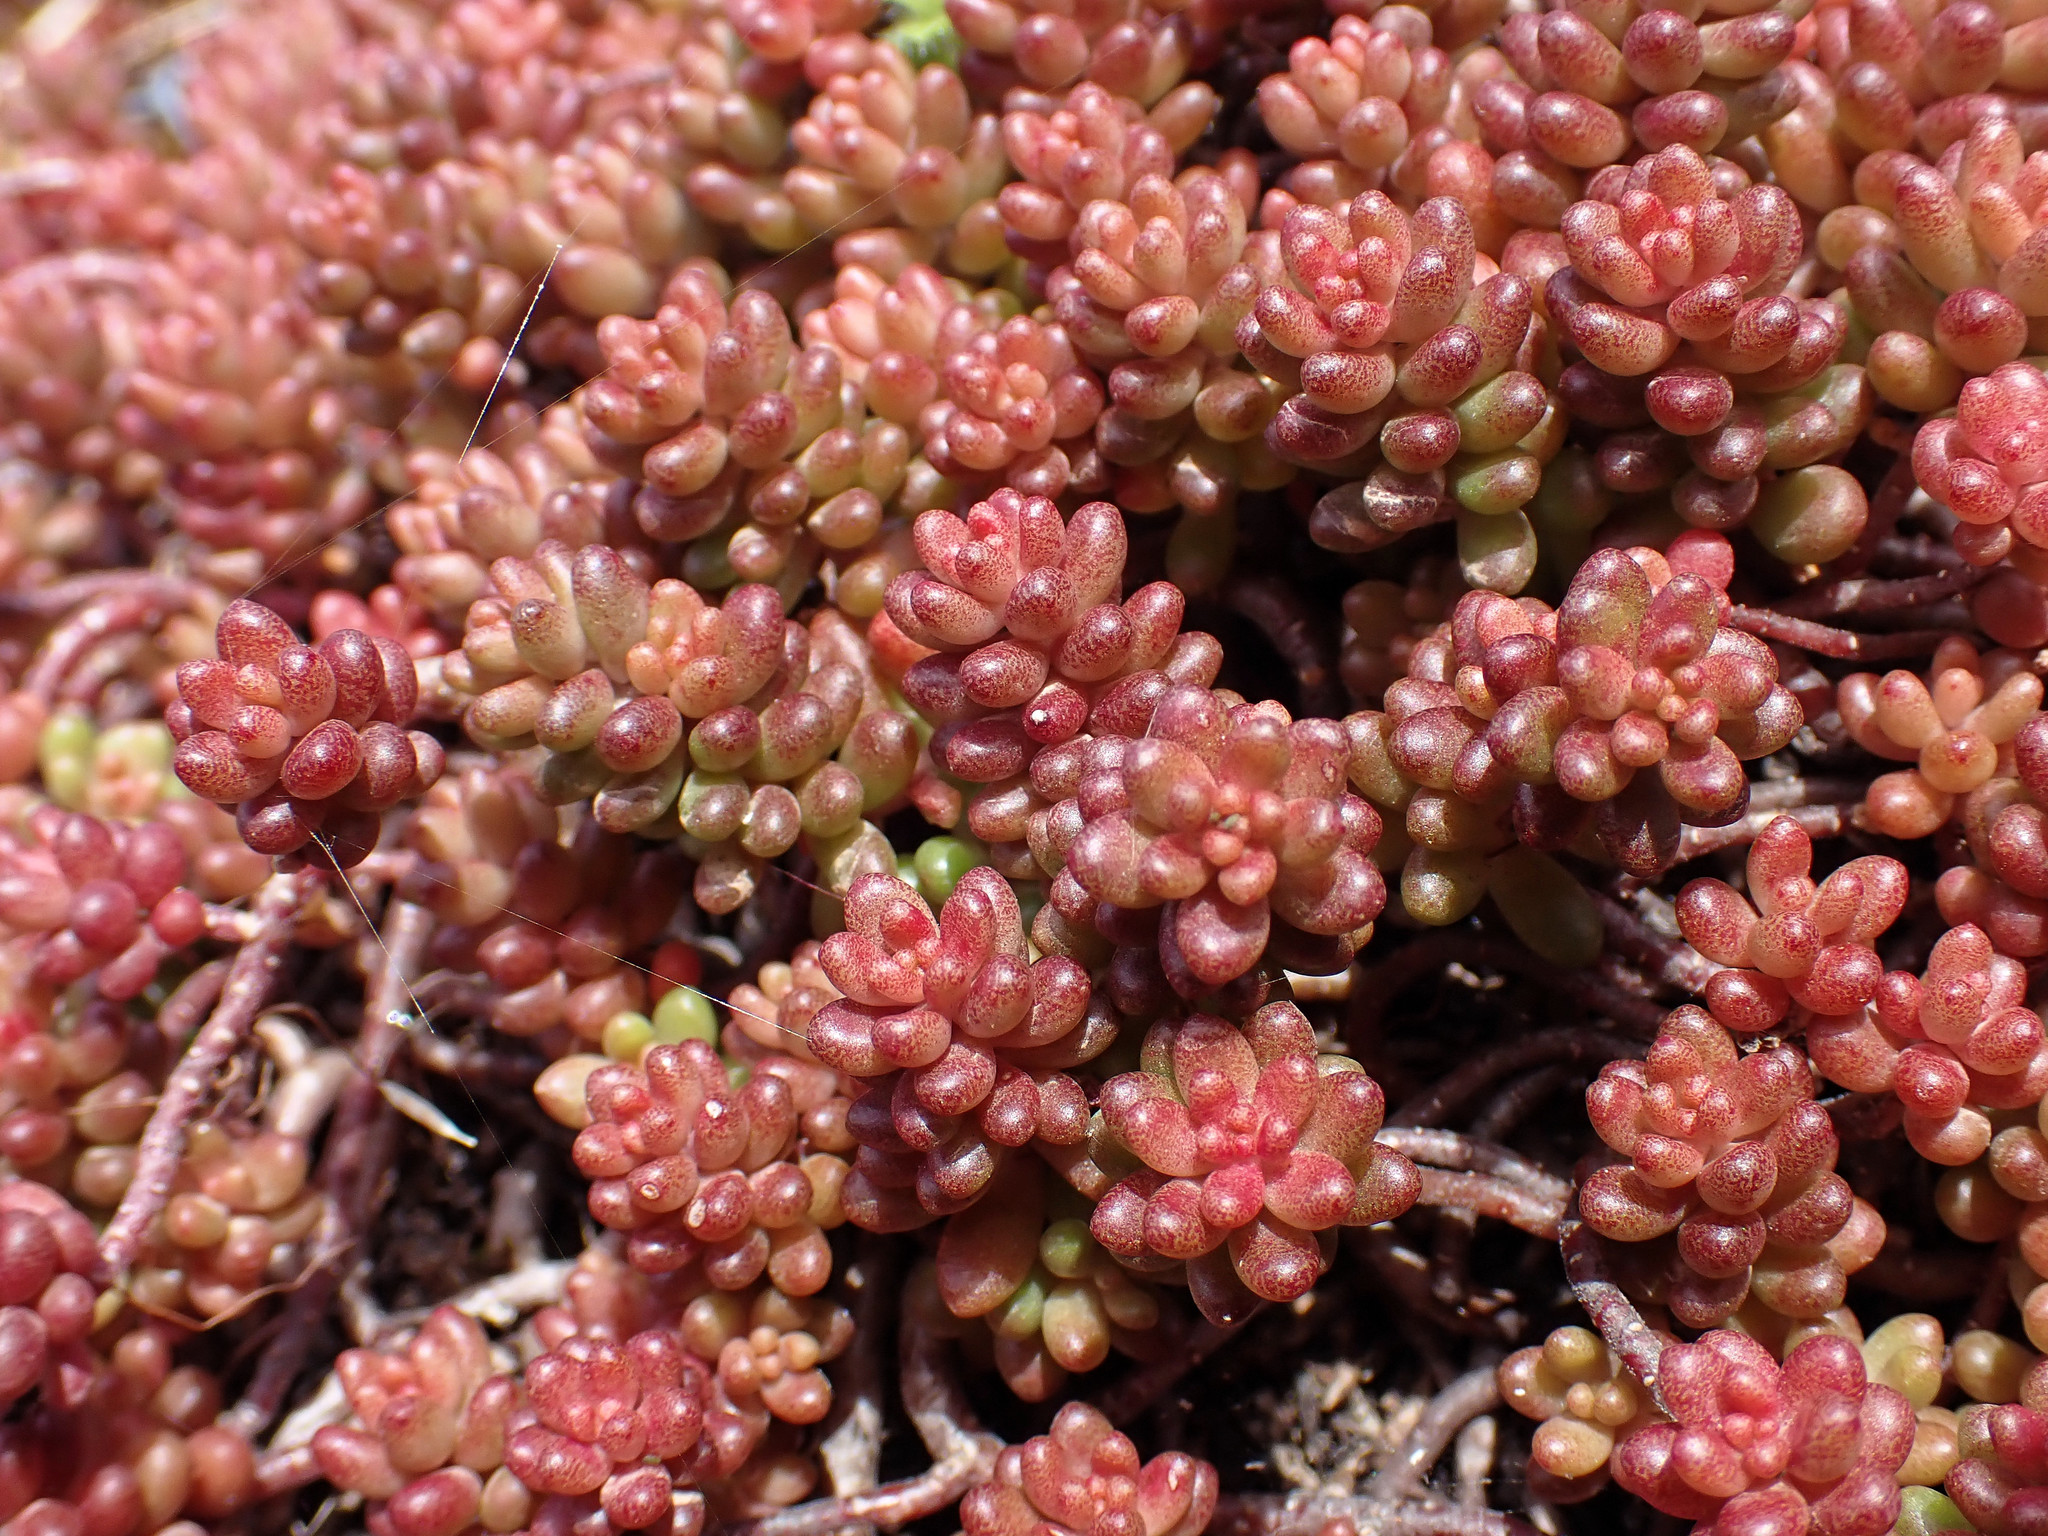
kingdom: Plantae
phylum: Tracheophyta
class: Magnoliopsida
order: Saxifragales
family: Crassulaceae
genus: Sedum
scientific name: Sedum album
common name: White stonecrop
